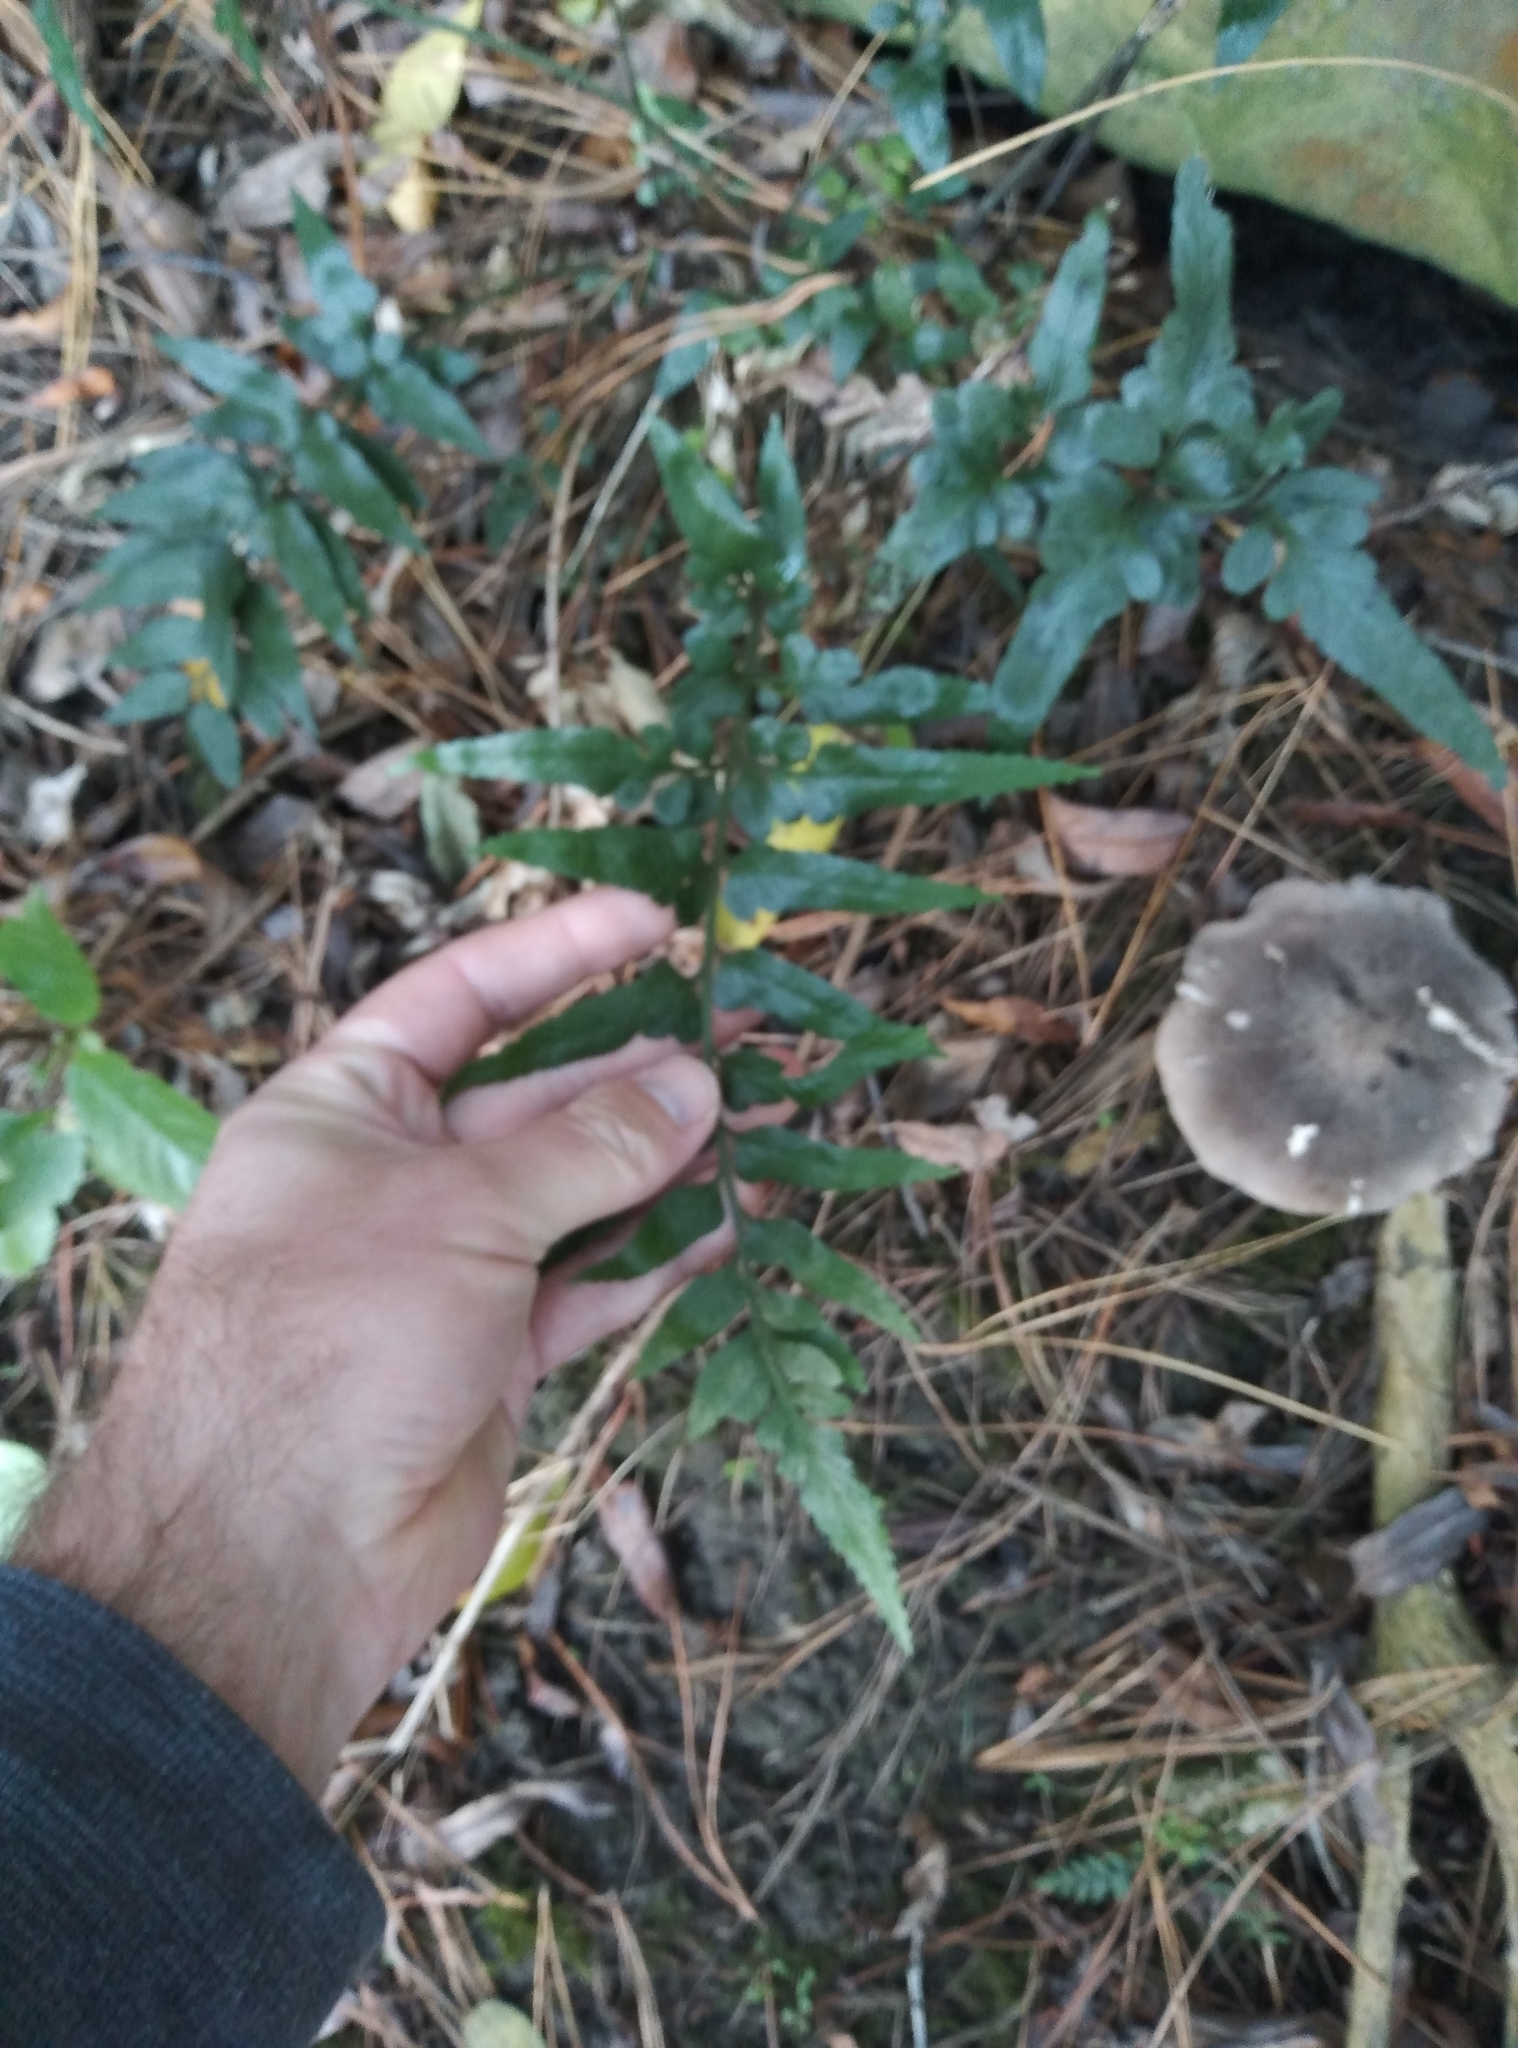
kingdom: Plantae
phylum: Tracheophyta
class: Polypodiopsida
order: Polypodiales
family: Aspleniaceae
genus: Asplenium
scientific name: Asplenium lyallii
